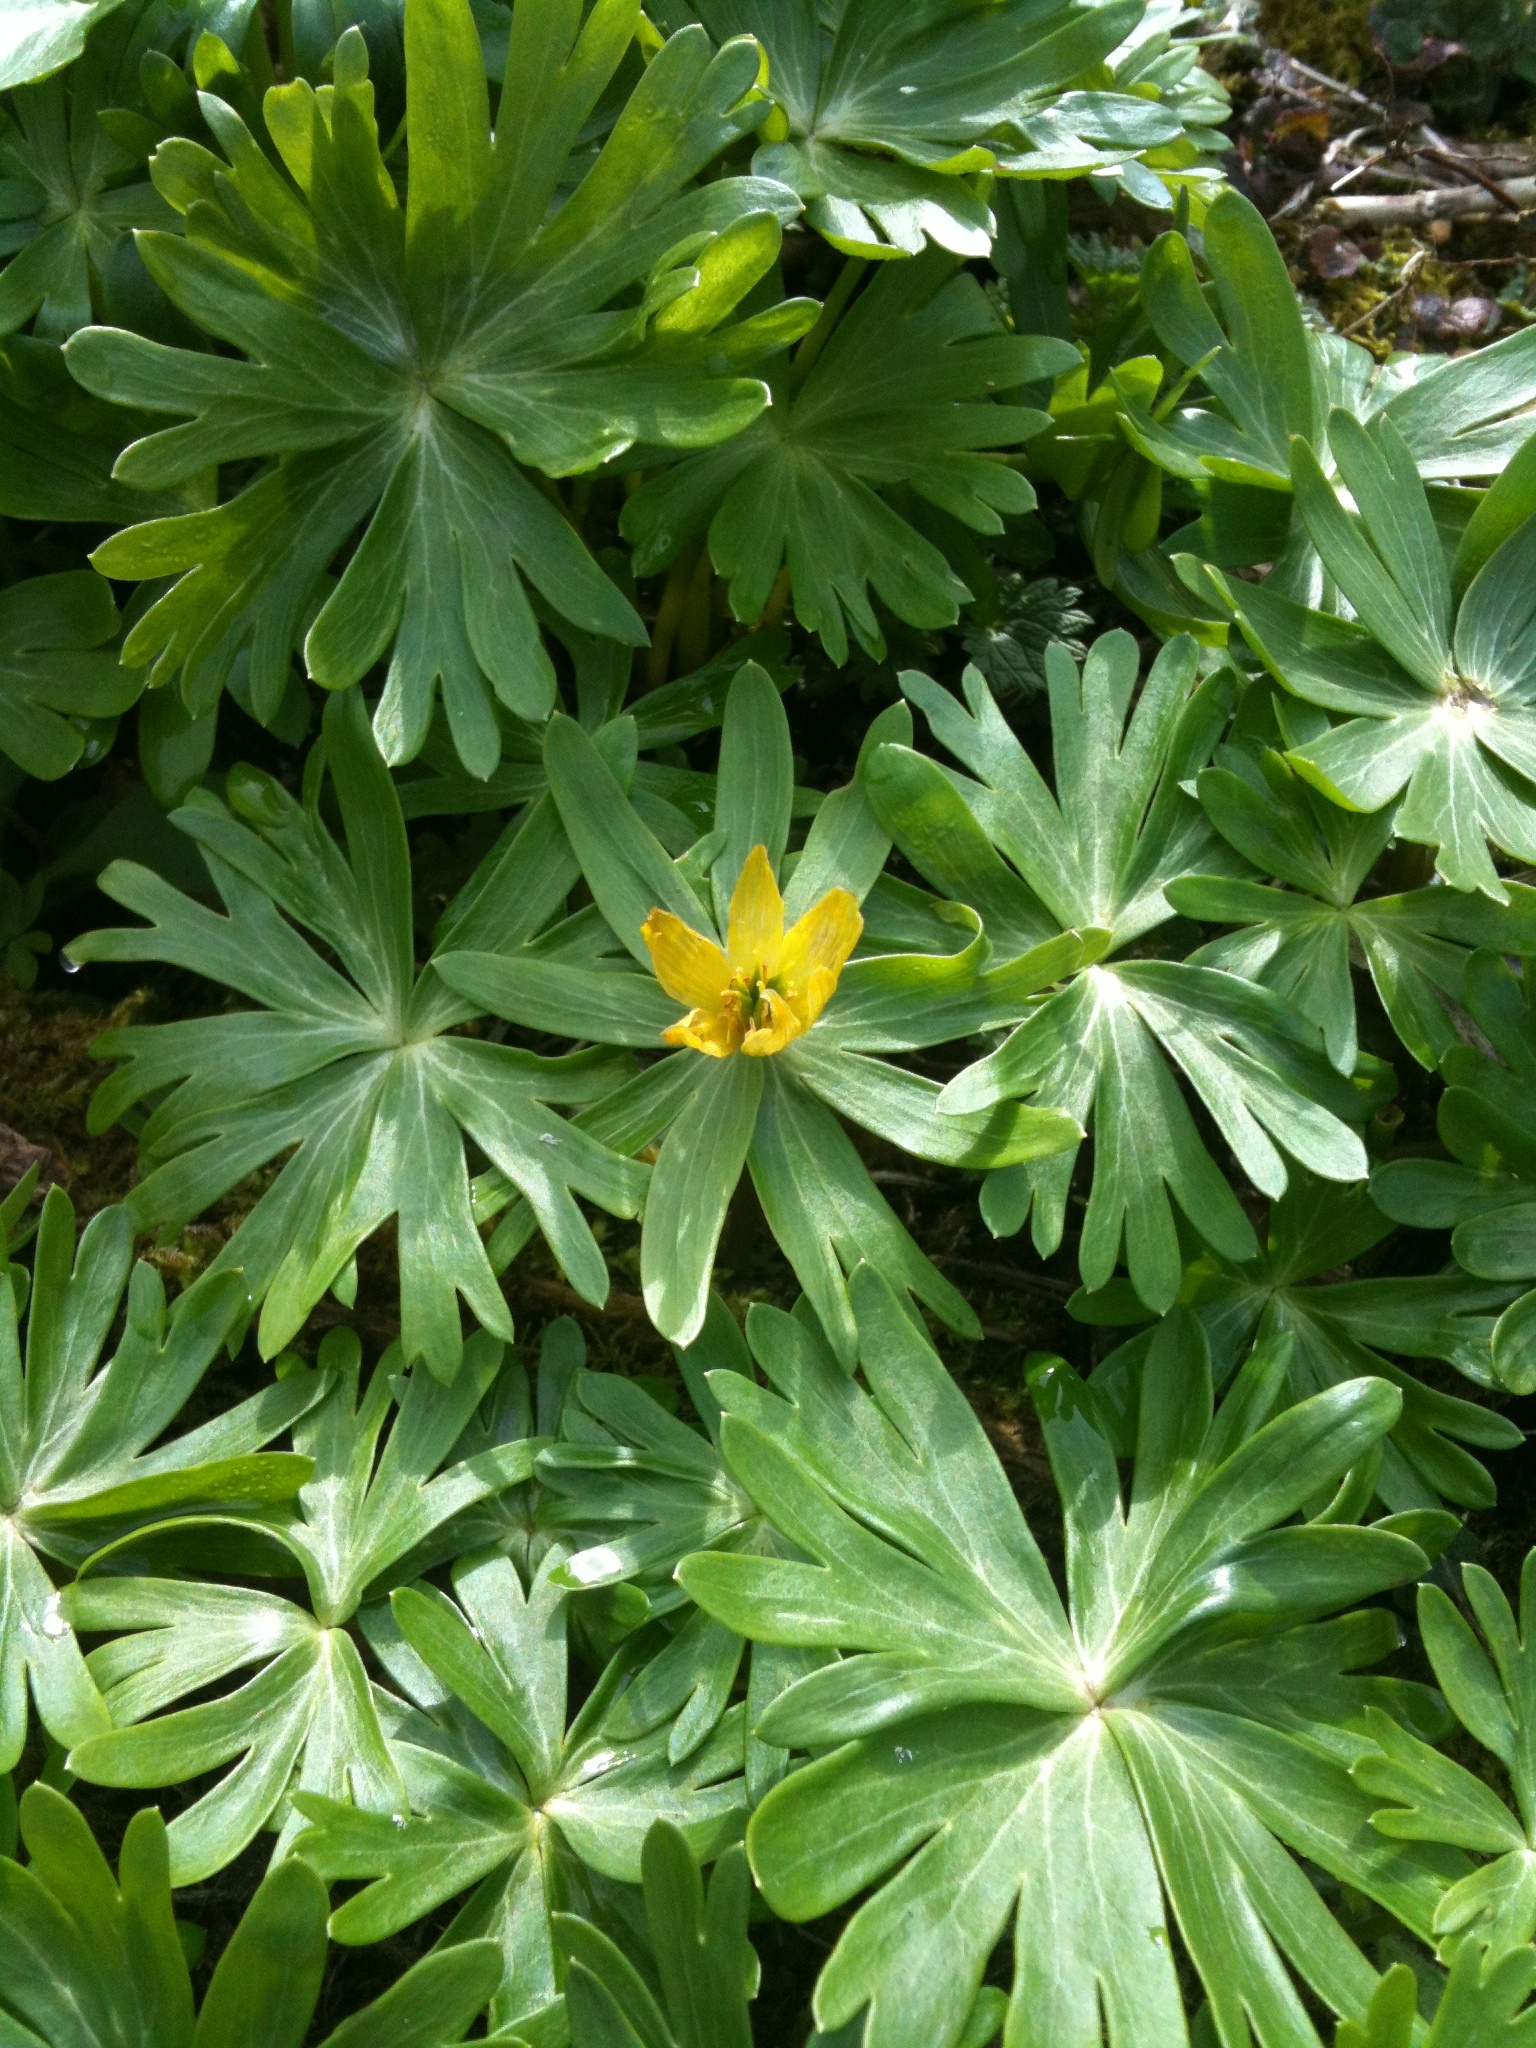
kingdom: Plantae
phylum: Tracheophyta
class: Magnoliopsida
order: Ranunculales
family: Ranunculaceae
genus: Eranthis
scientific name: Eranthis hyemalis
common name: Winter aconite
